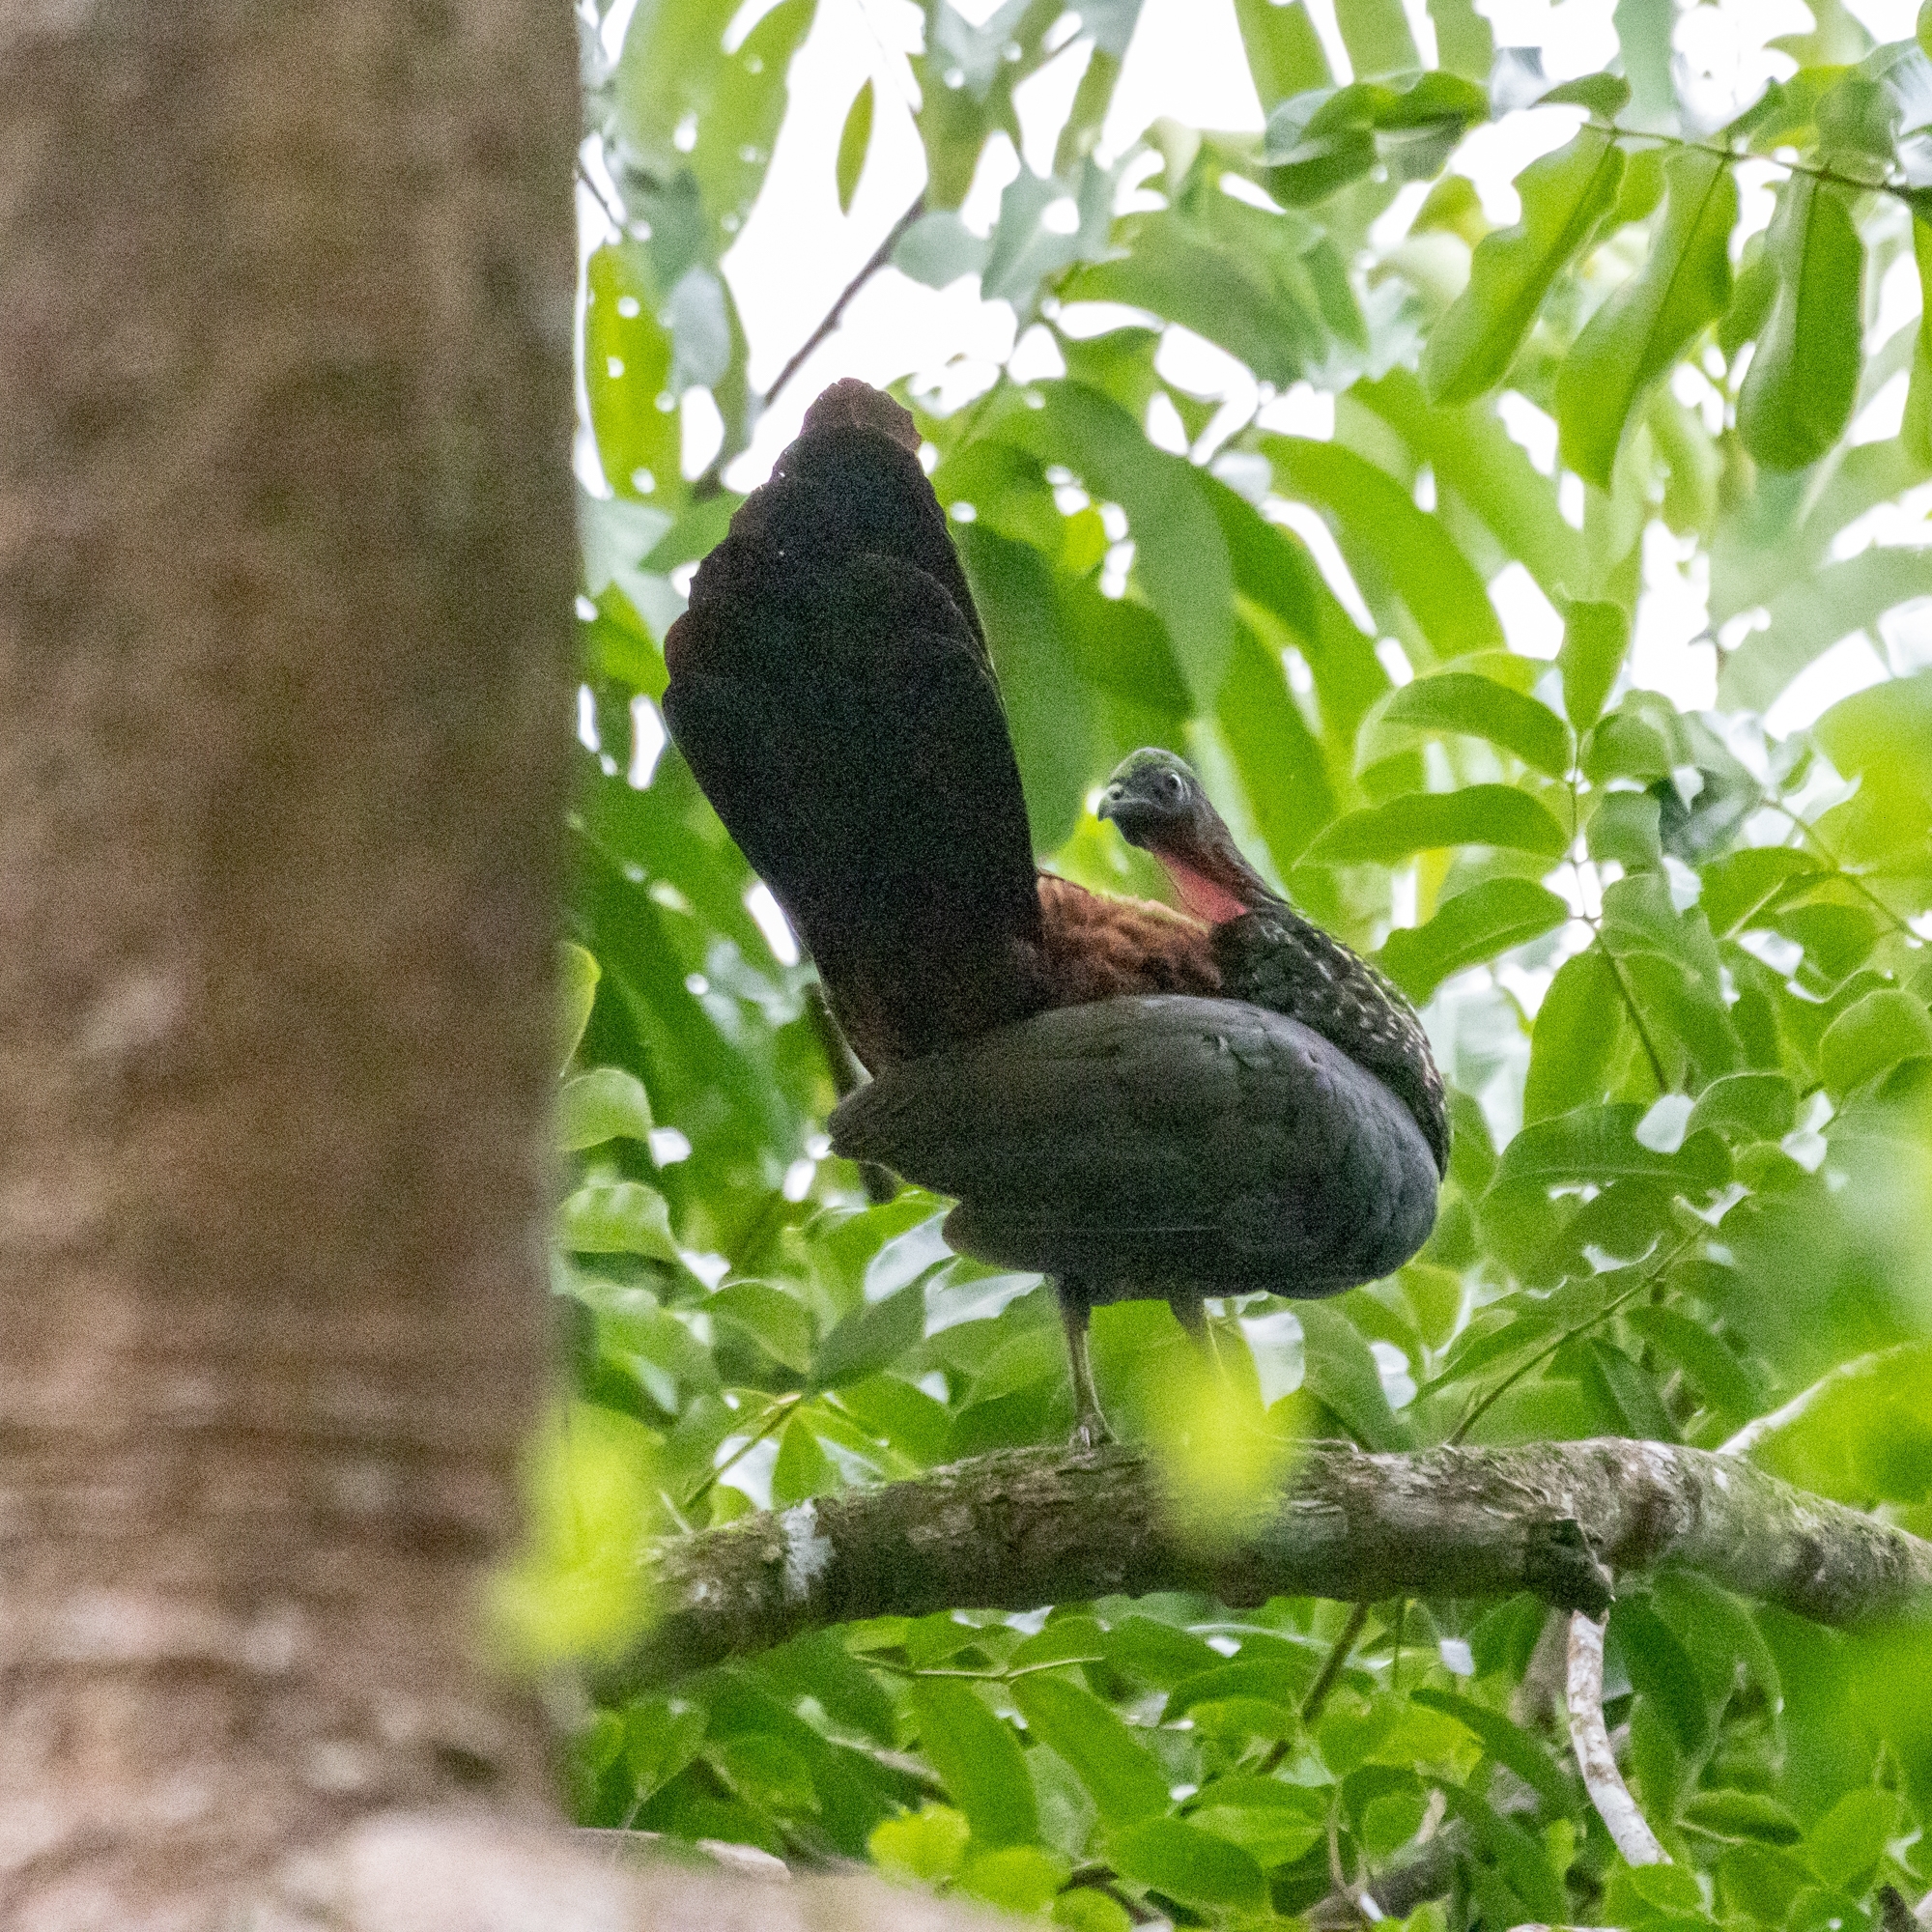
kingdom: Animalia
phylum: Chordata
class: Aves
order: Galliformes
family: Cracidae
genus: Penelope
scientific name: Penelope purpurascens
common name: Crested guan
